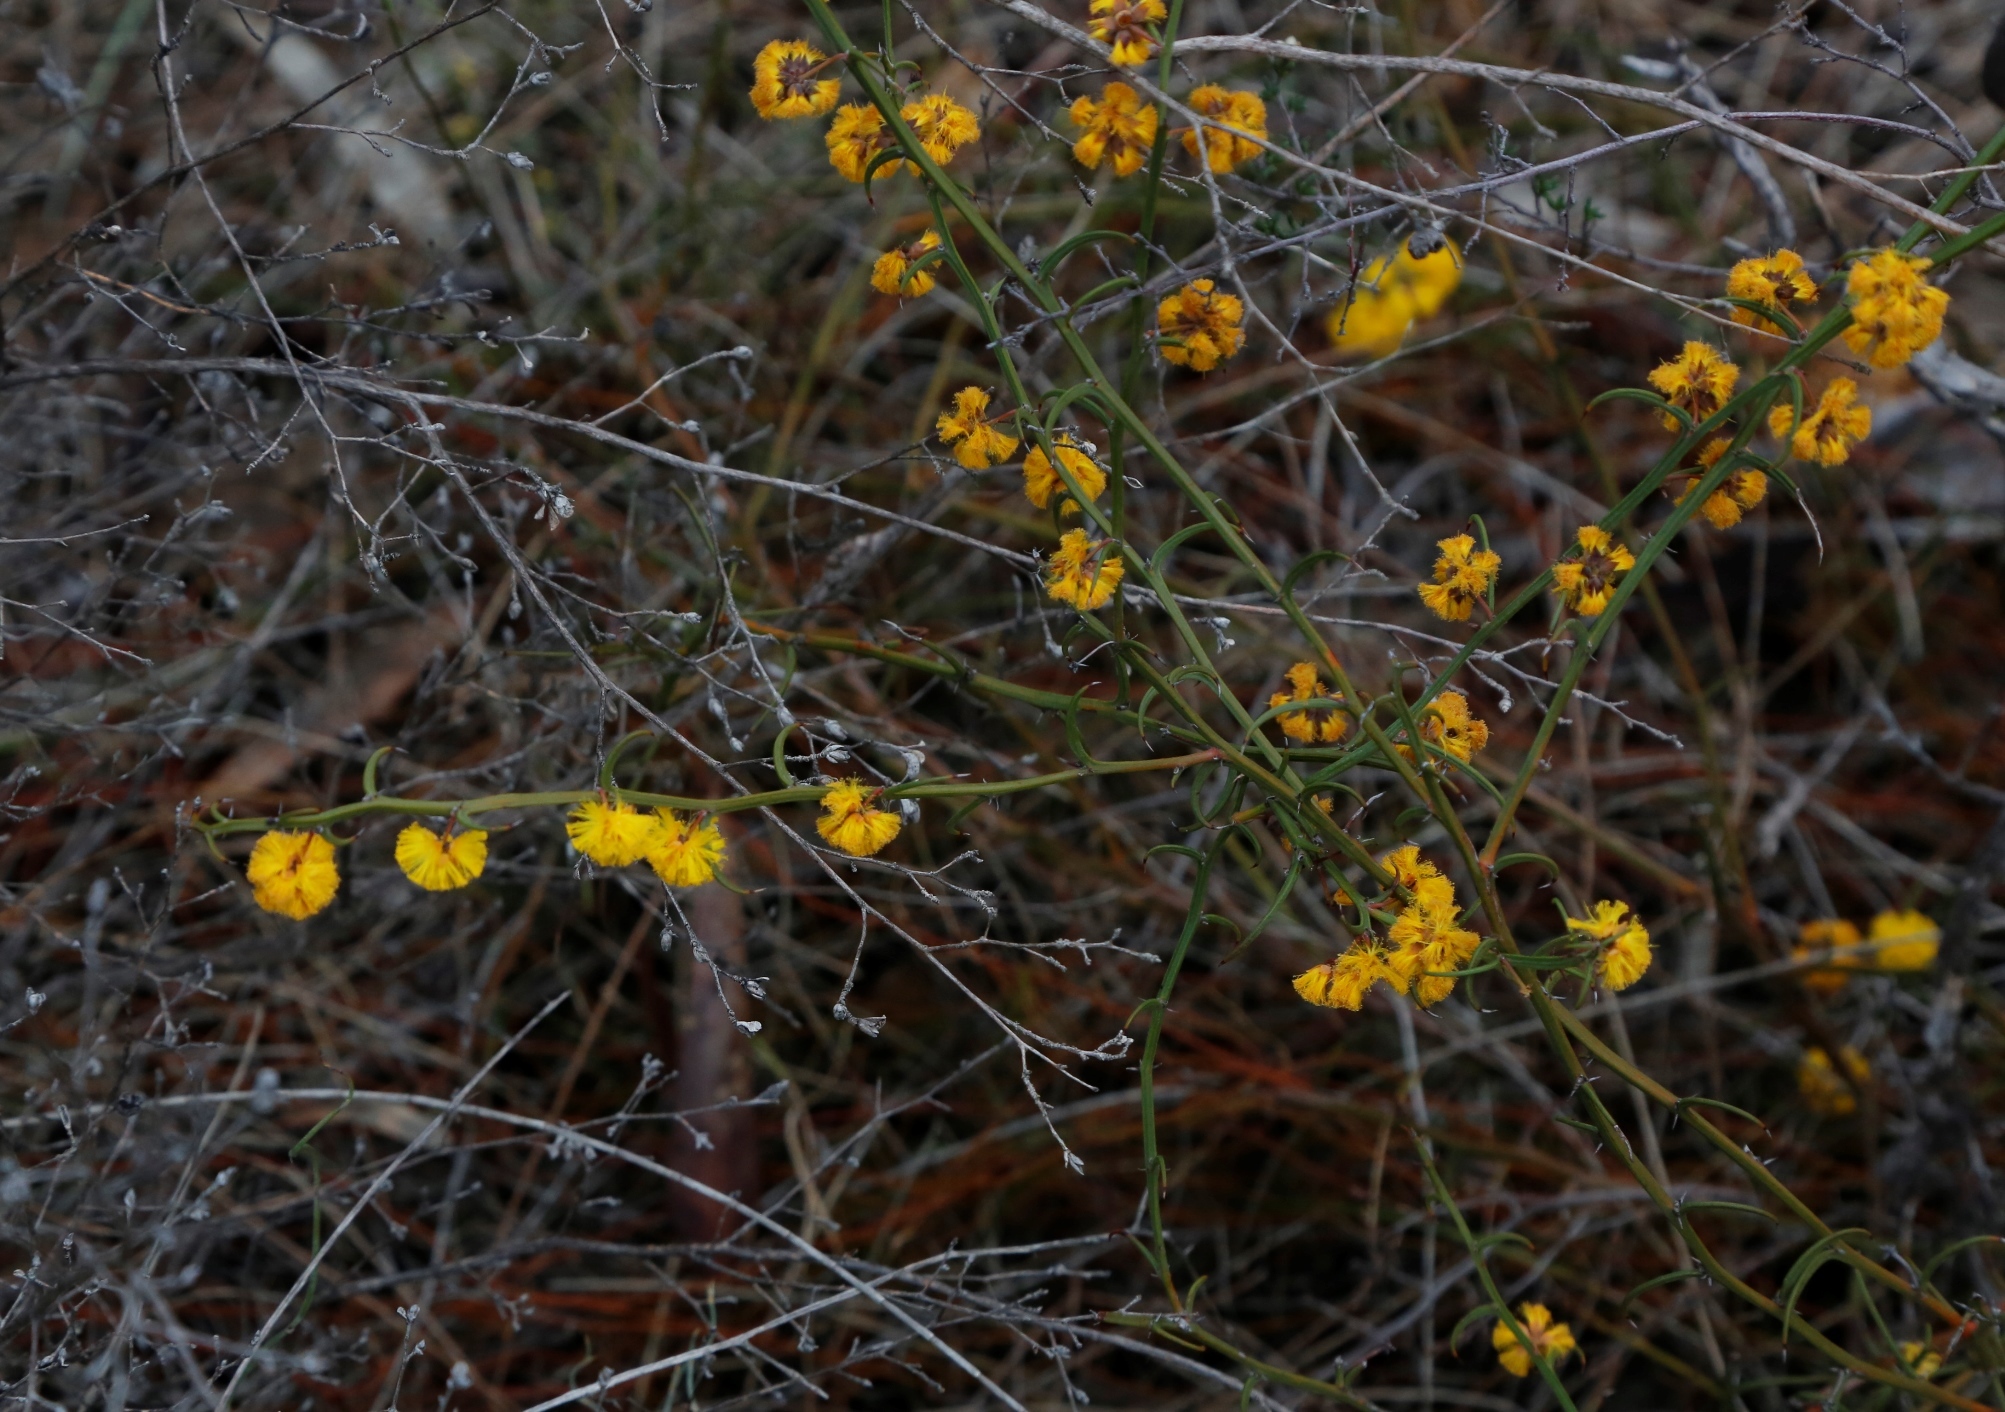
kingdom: Plantae
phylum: Tracheophyta
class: Magnoliopsida
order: Fabales
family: Fabaceae
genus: Acacia
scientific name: Acacia stenoptera
